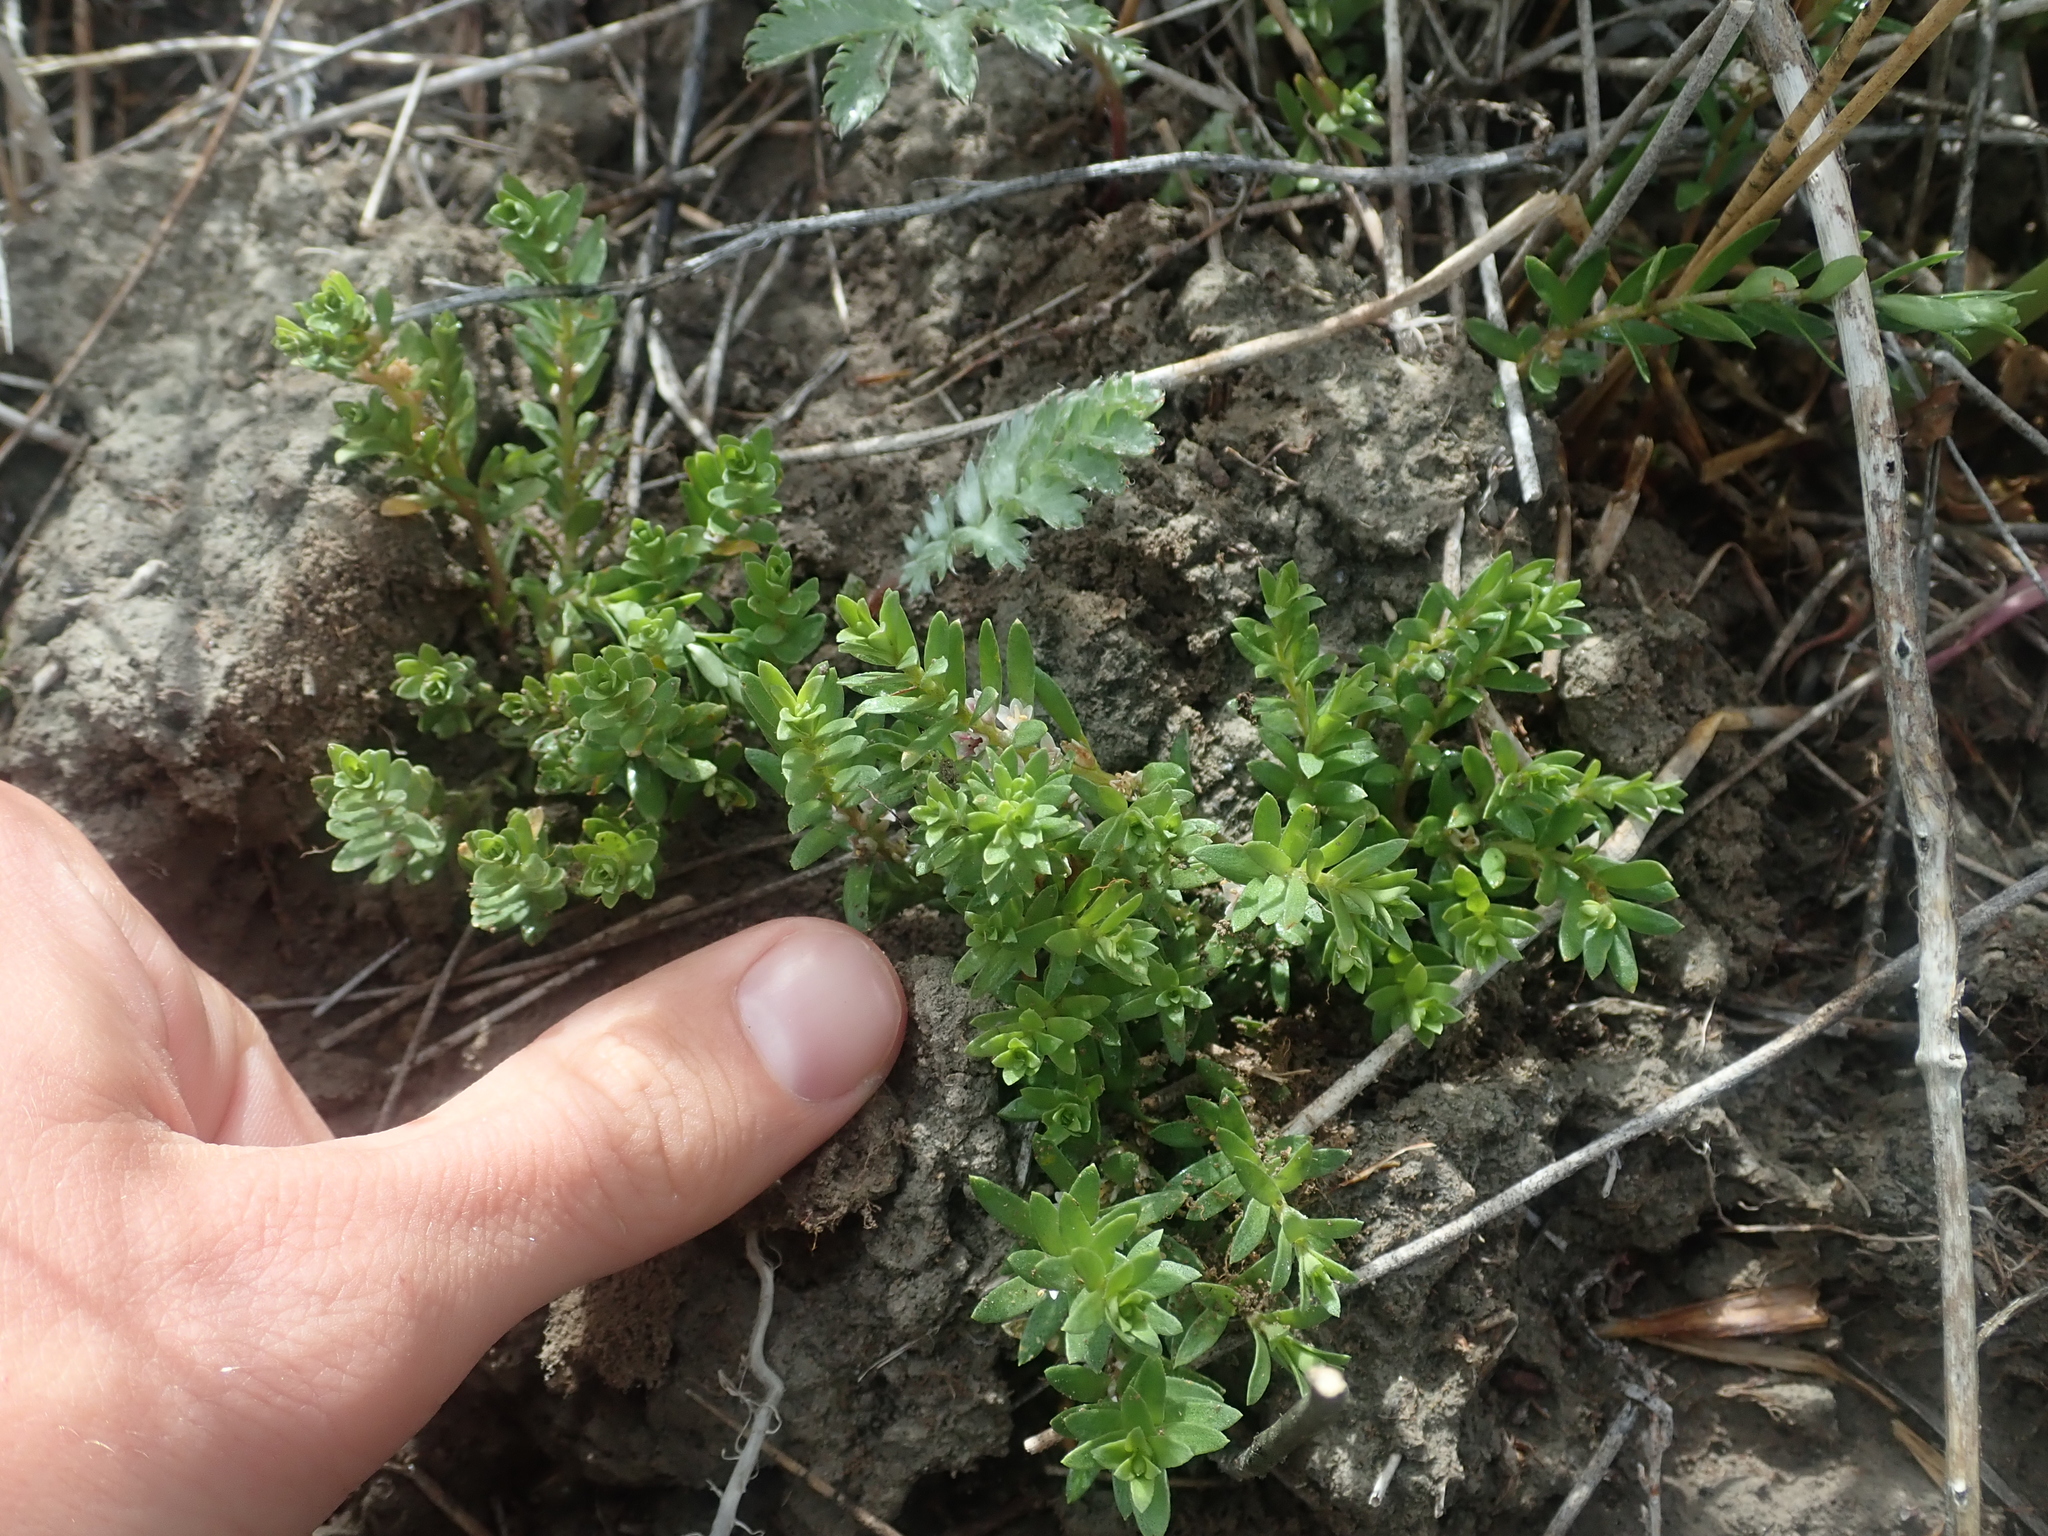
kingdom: Plantae
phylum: Tracheophyta
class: Magnoliopsida
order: Ericales
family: Primulaceae
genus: Lysimachia
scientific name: Lysimachia maritima
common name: Sea milkwort
